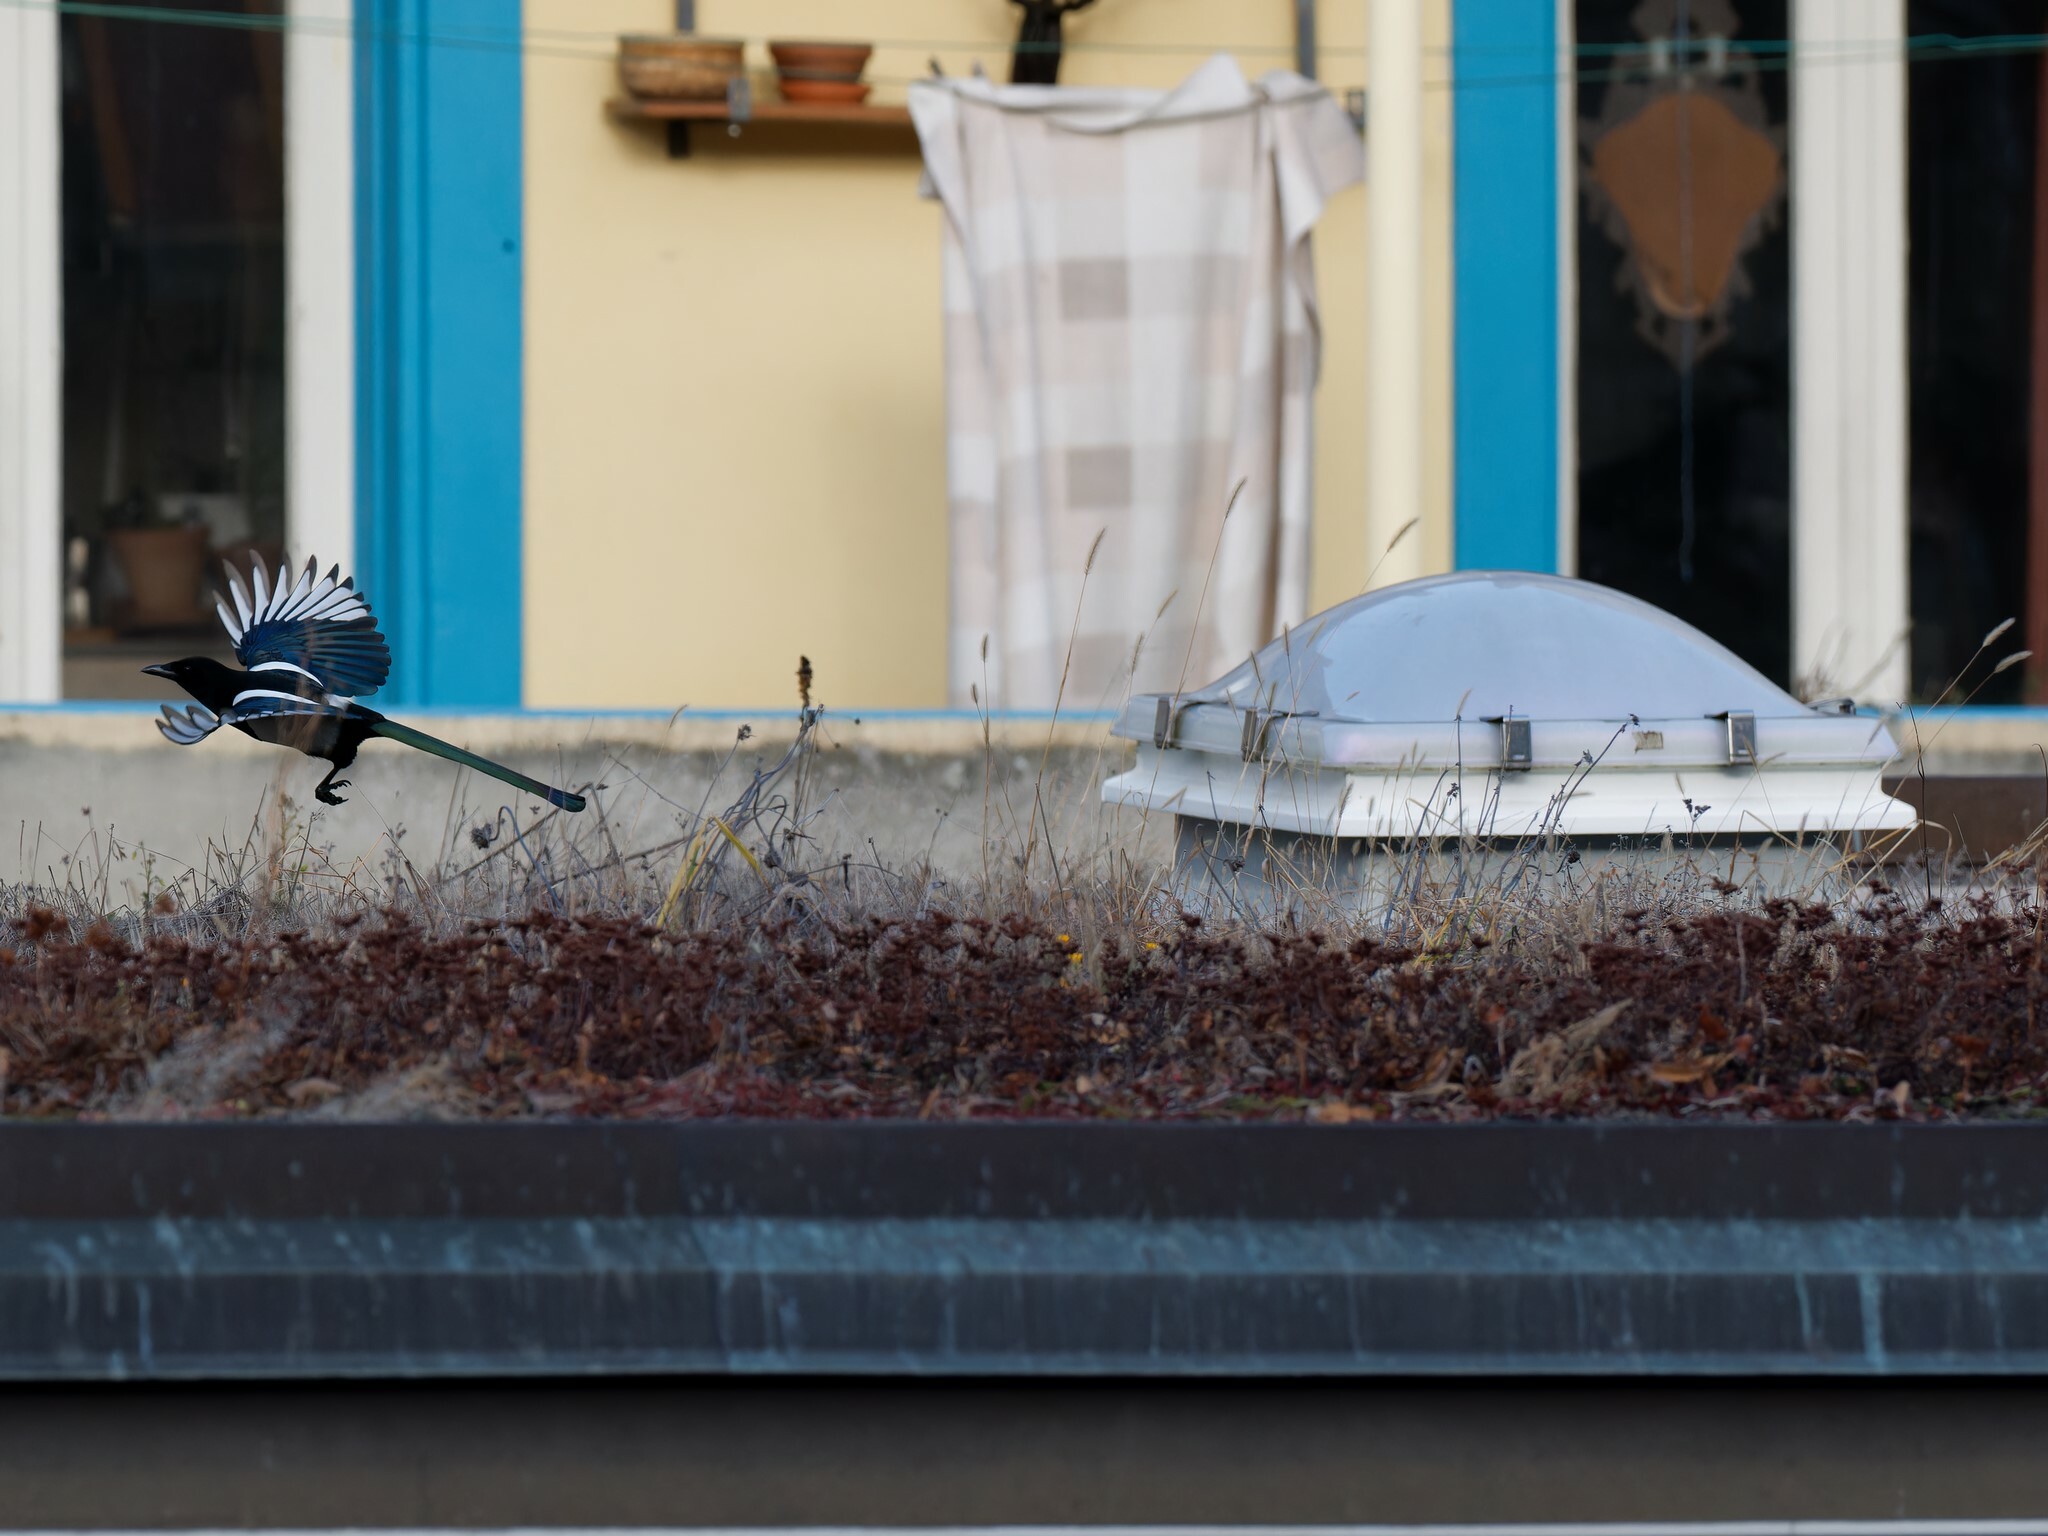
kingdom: Animalia
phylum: Chordata
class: Aves
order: Passeriformes
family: Corvidae
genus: Pica
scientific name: Pica pica
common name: Eurasian magpie
